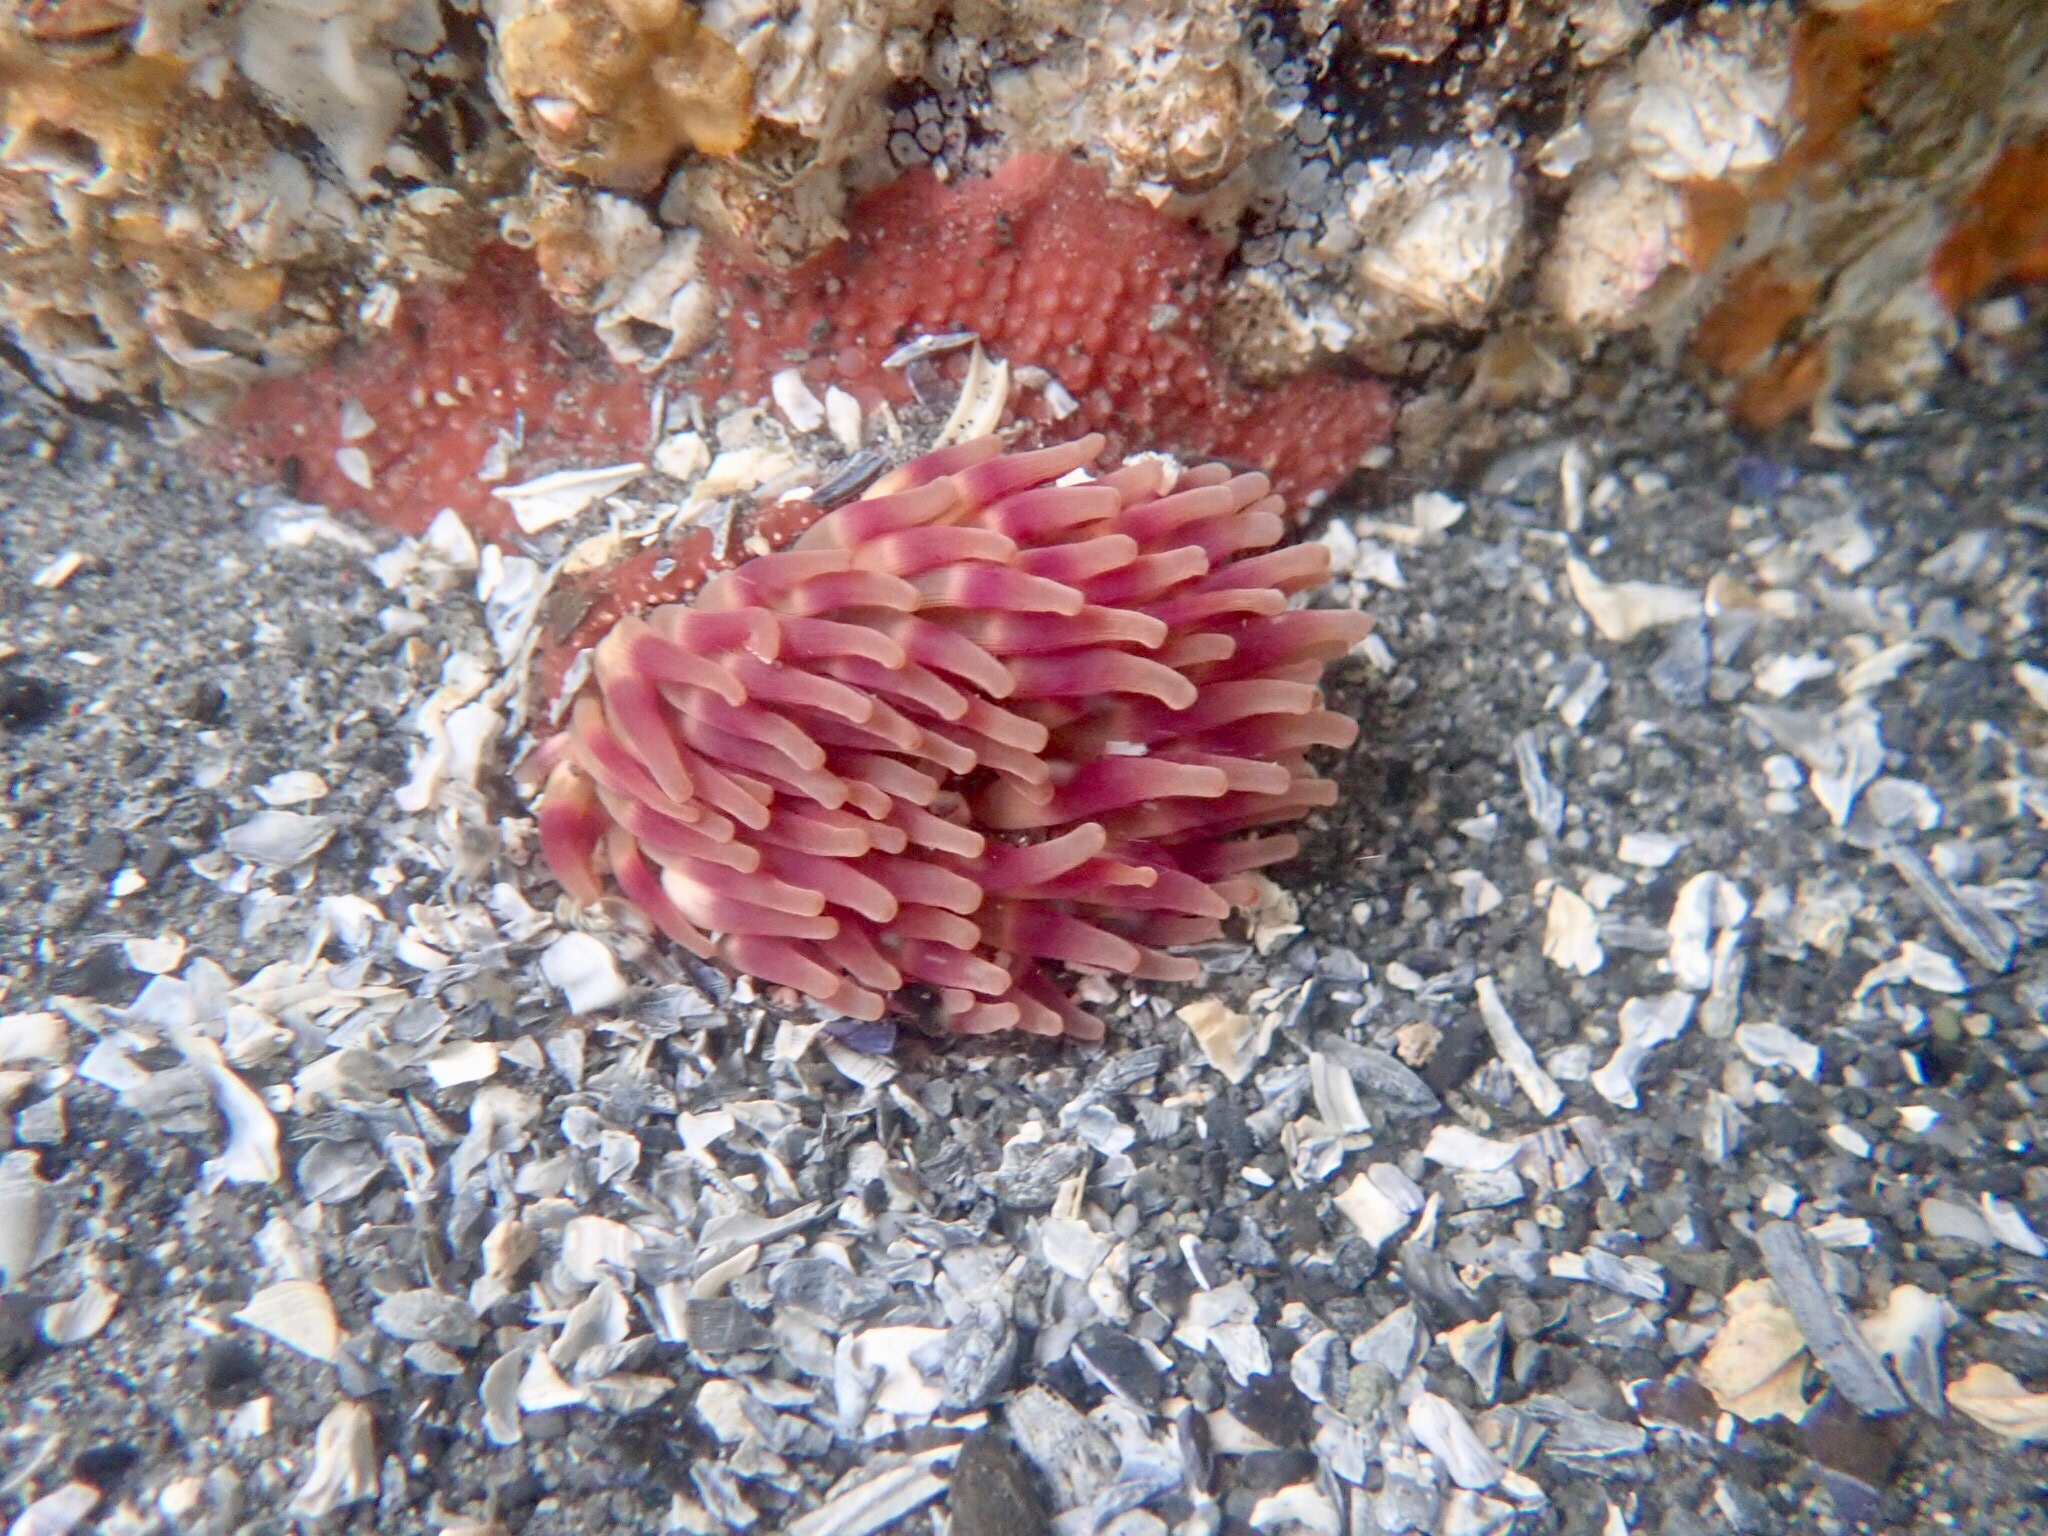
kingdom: Animalia
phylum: Cnidaria
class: Anthozoa
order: Actiniaria
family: Actiniidae
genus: Urticina
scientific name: Urticina grebelnyi
